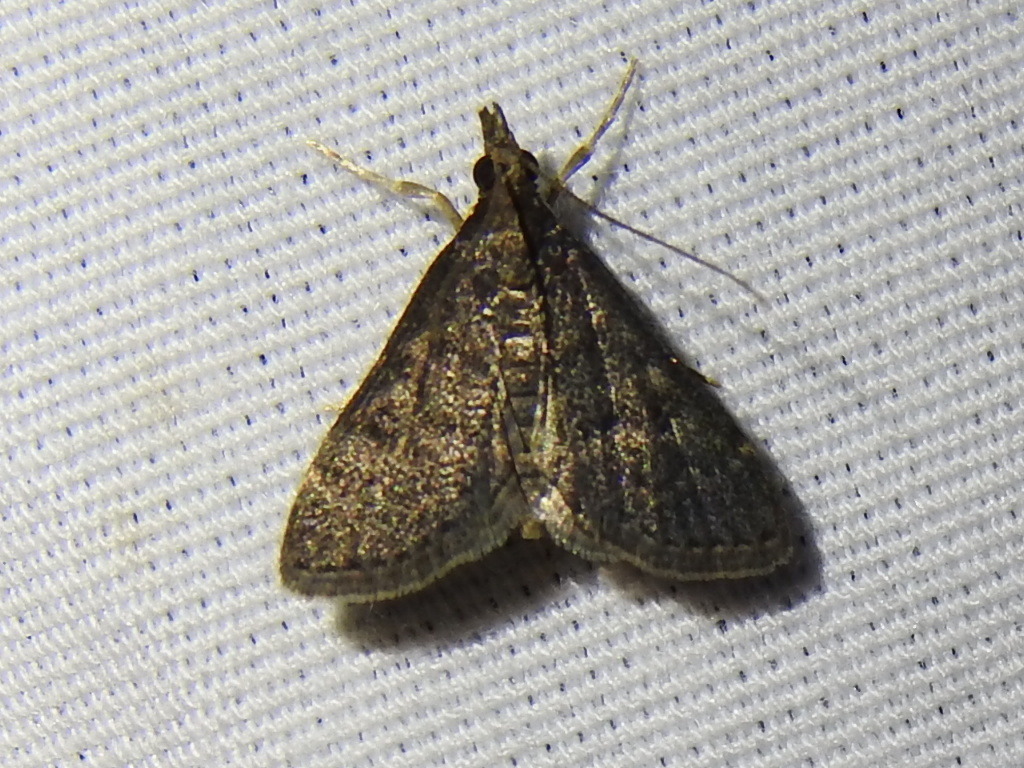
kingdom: Animalia
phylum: Arthropoda
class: Insecta
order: Lepidoptera
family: Crambidae
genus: Steniodes
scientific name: Steniodes declivalis
